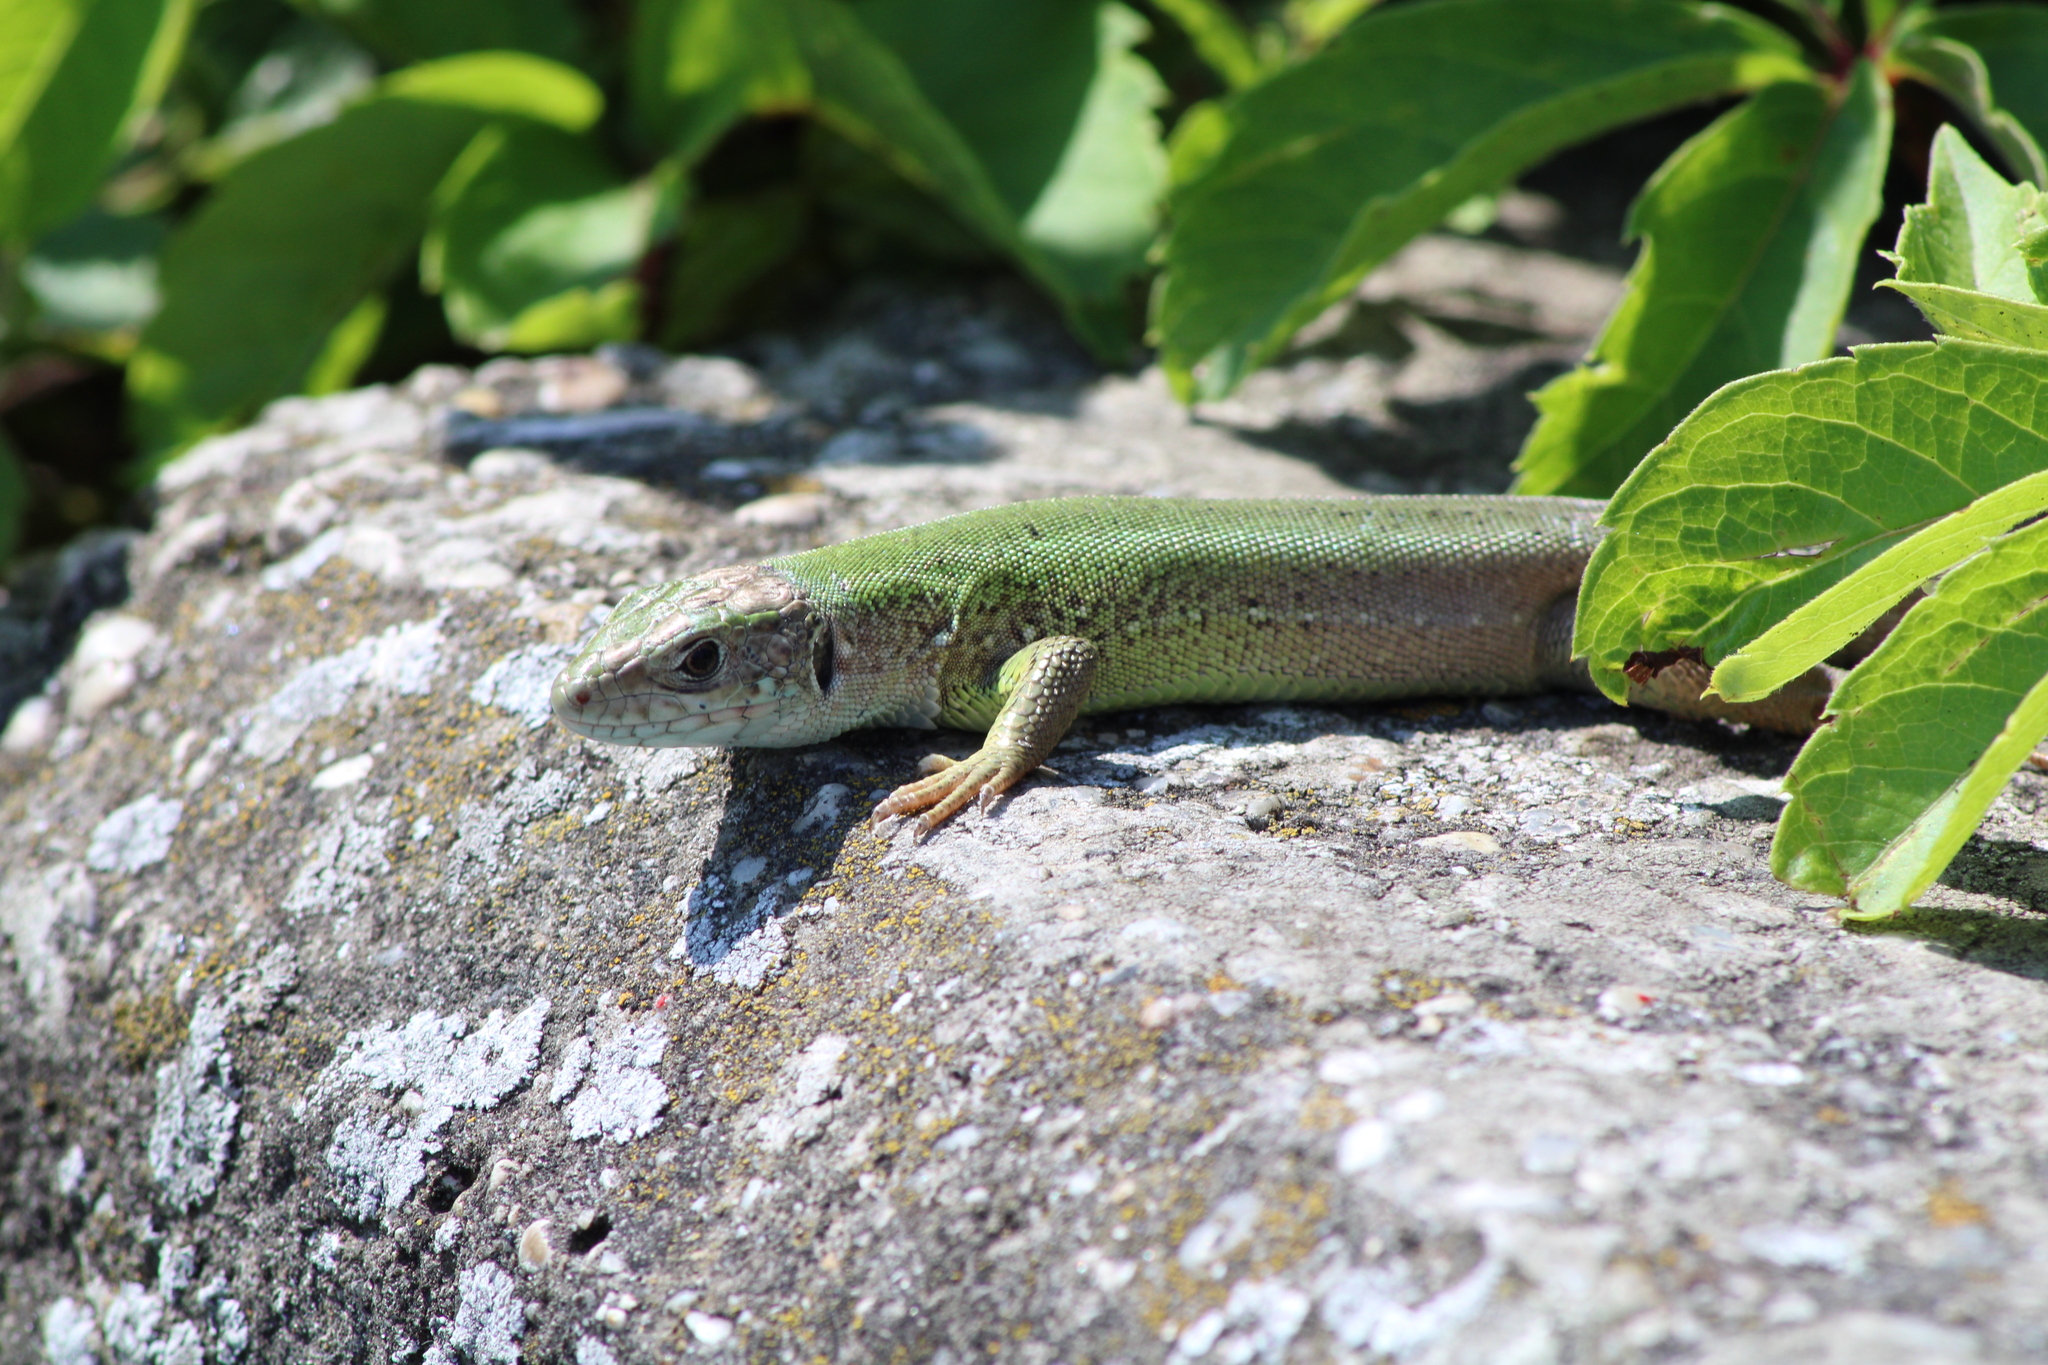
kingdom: Animalia
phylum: Chordata
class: Squamata
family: Lacertidae
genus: Lacerta
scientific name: Lacerta viridis
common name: European green lizard
